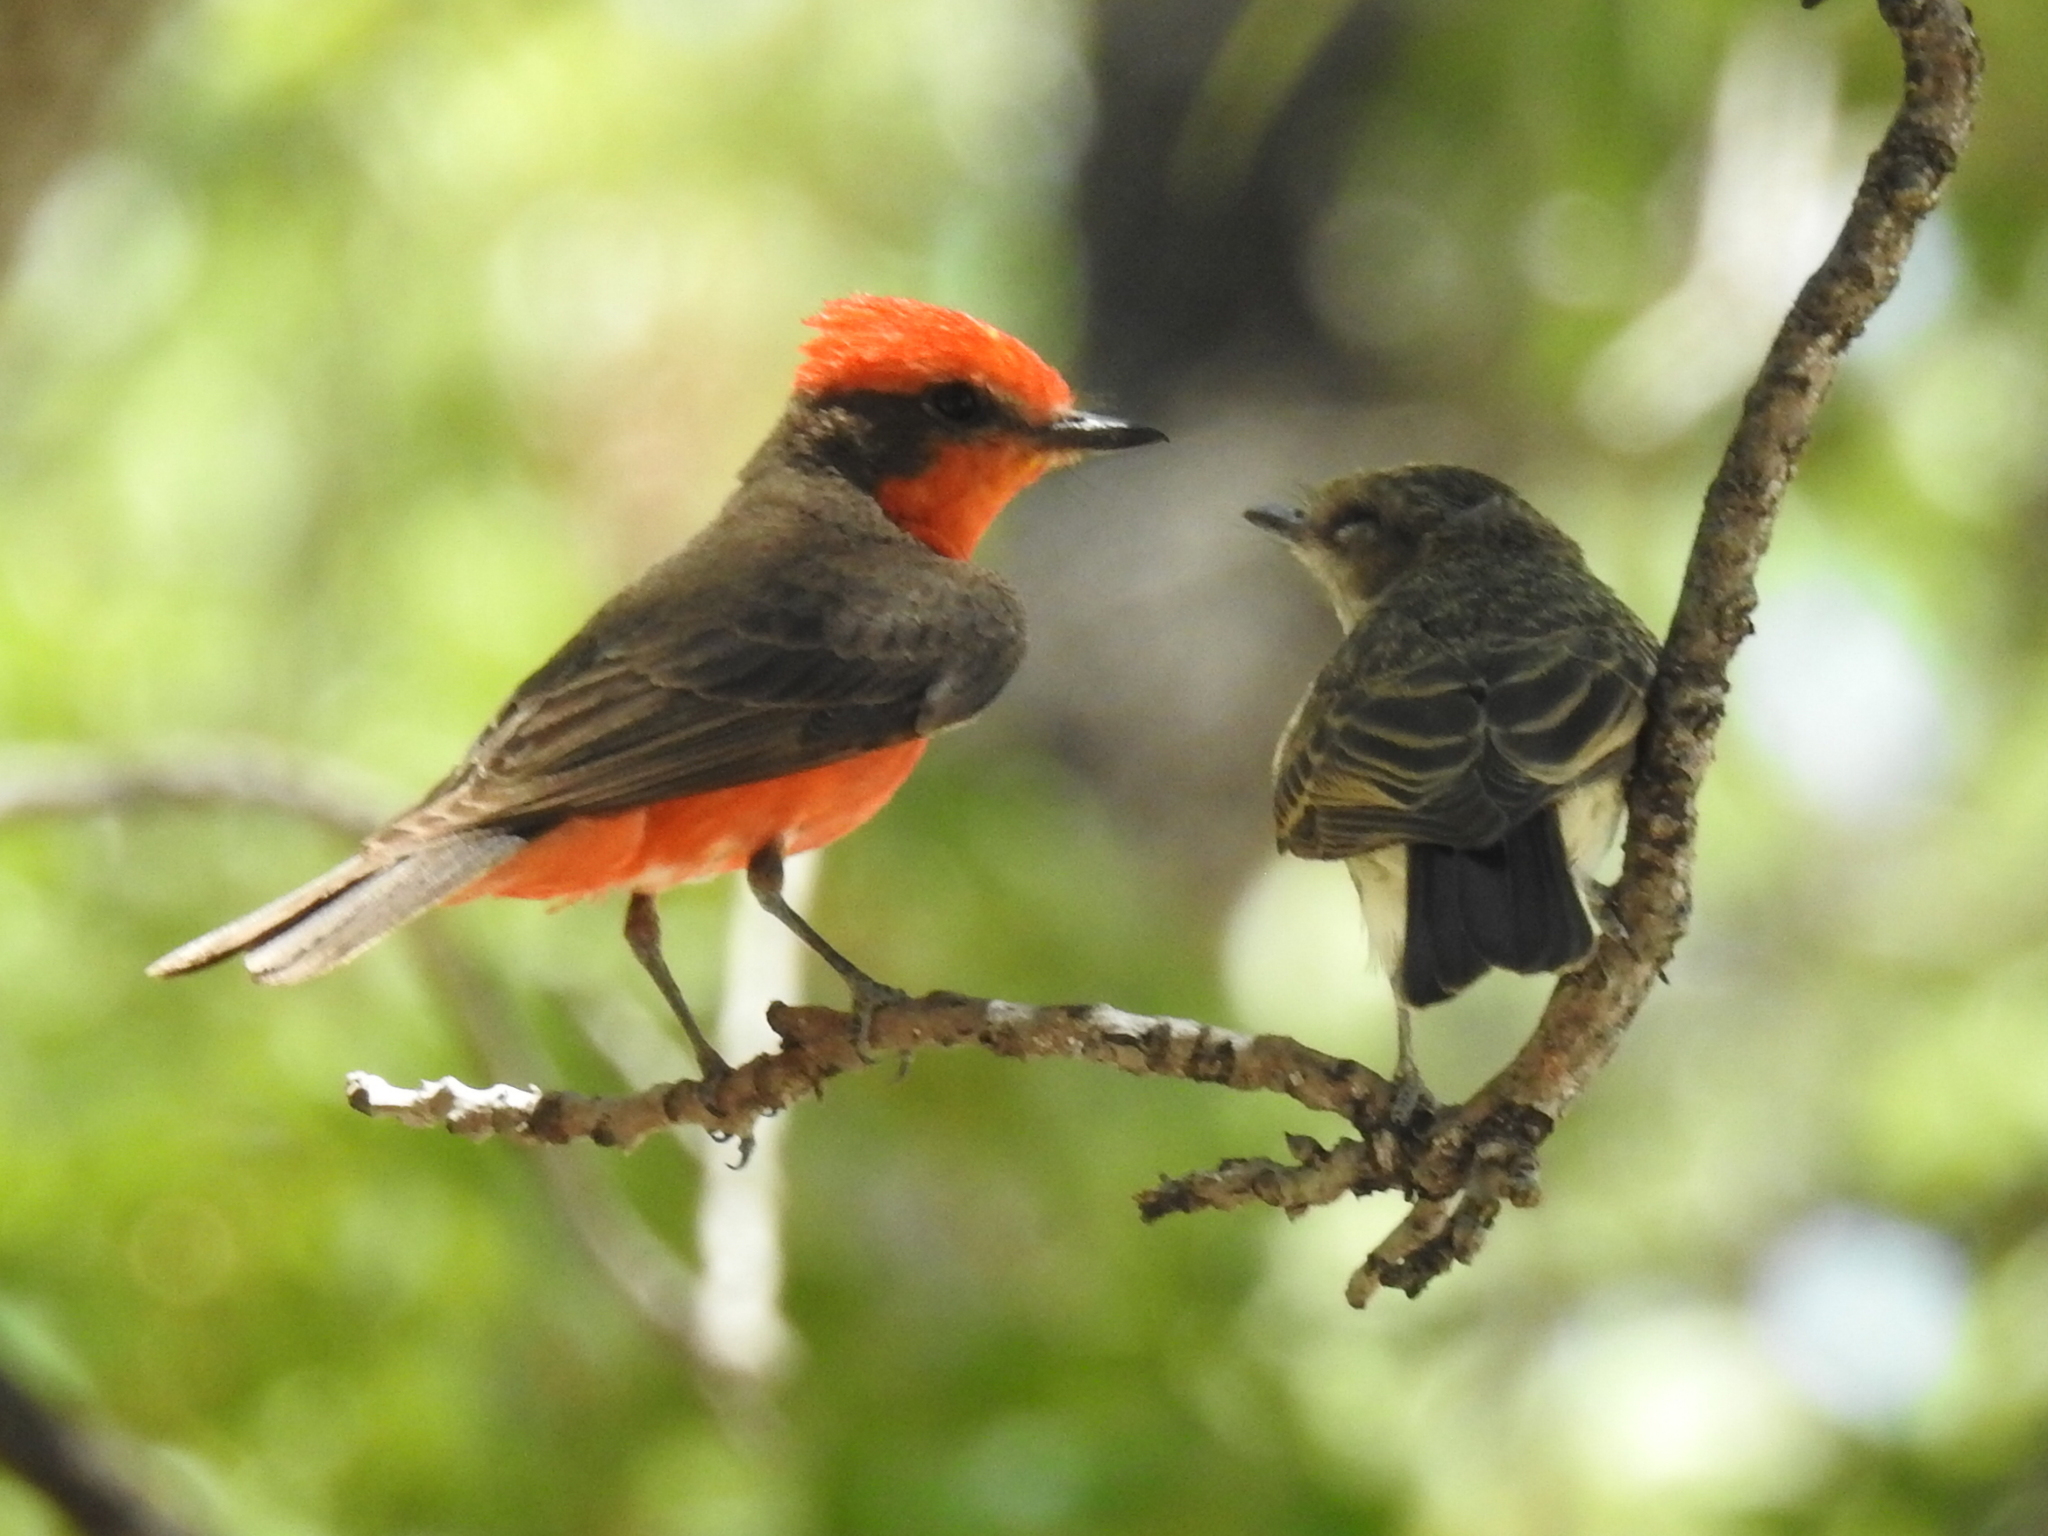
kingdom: Animalia
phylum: Chordata
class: Aves
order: Passeriformes
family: Tyrannidae
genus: Pyrocephalus
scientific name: Pyrocephalus rubinus
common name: Vermilion flycatcher
